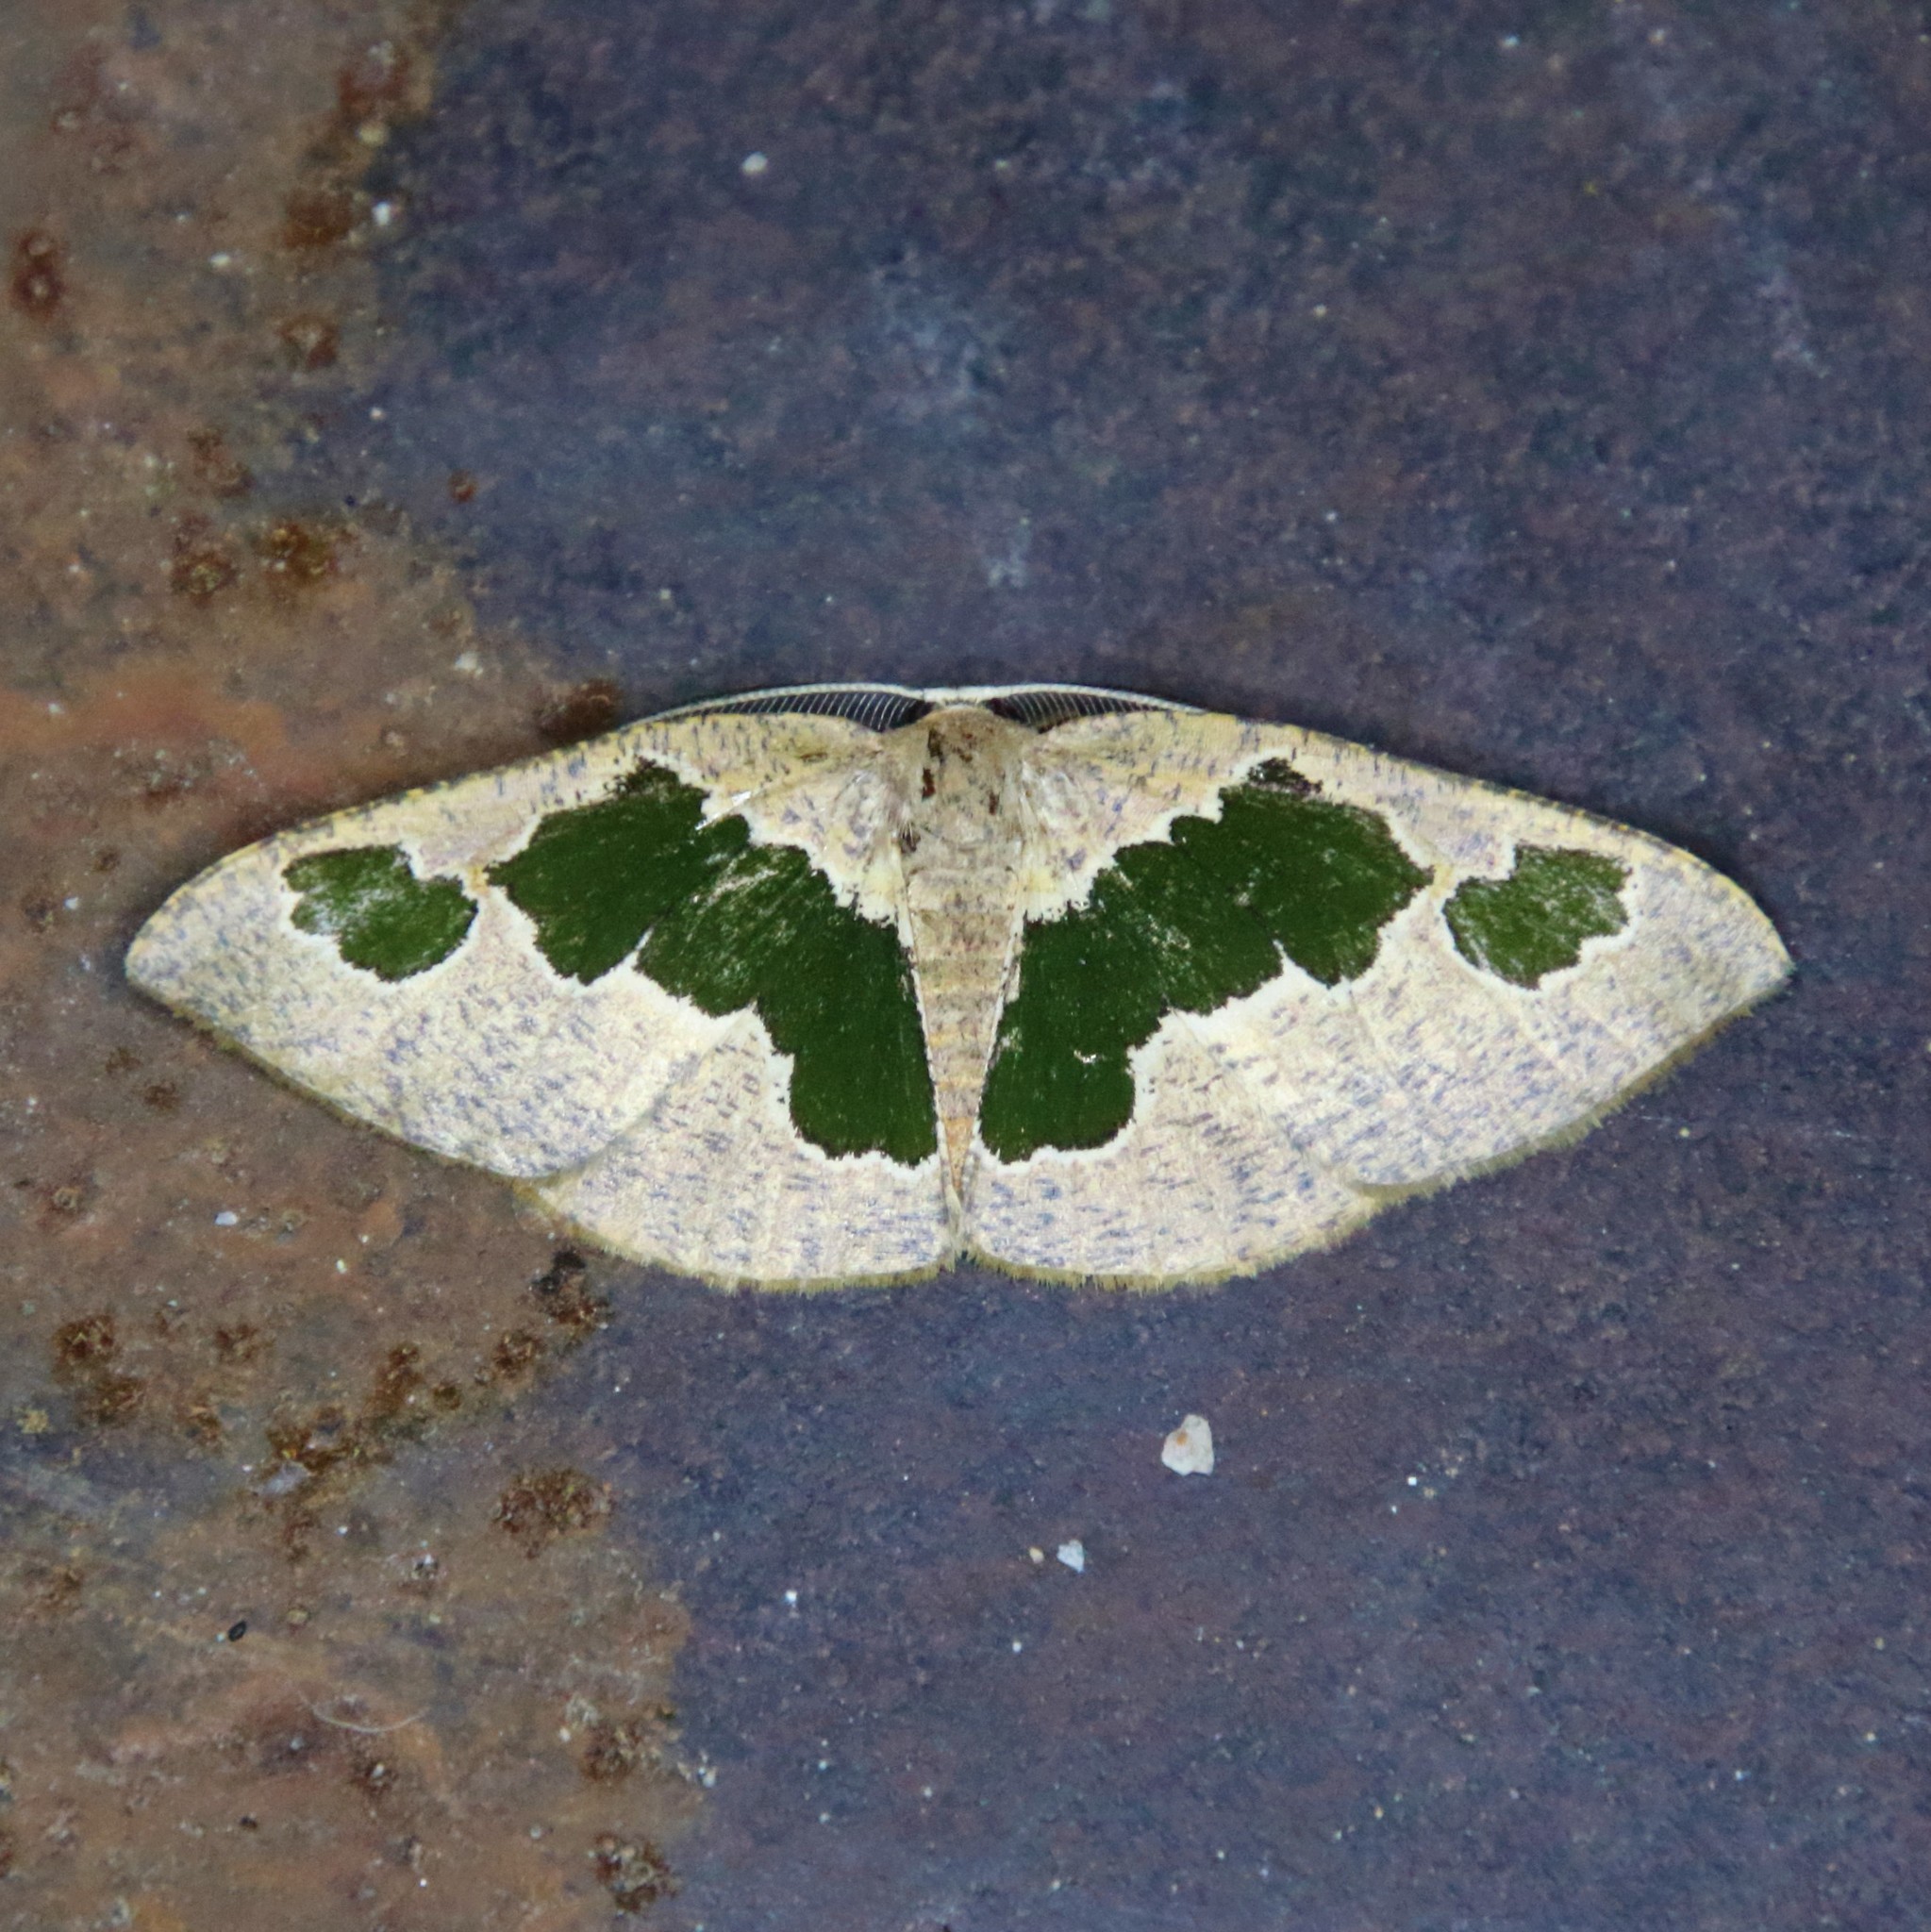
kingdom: Animalia
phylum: Arthropoda
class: Insecta
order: Lepidoptera
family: Geometridae
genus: Celenna
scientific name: Celenna festivaria
